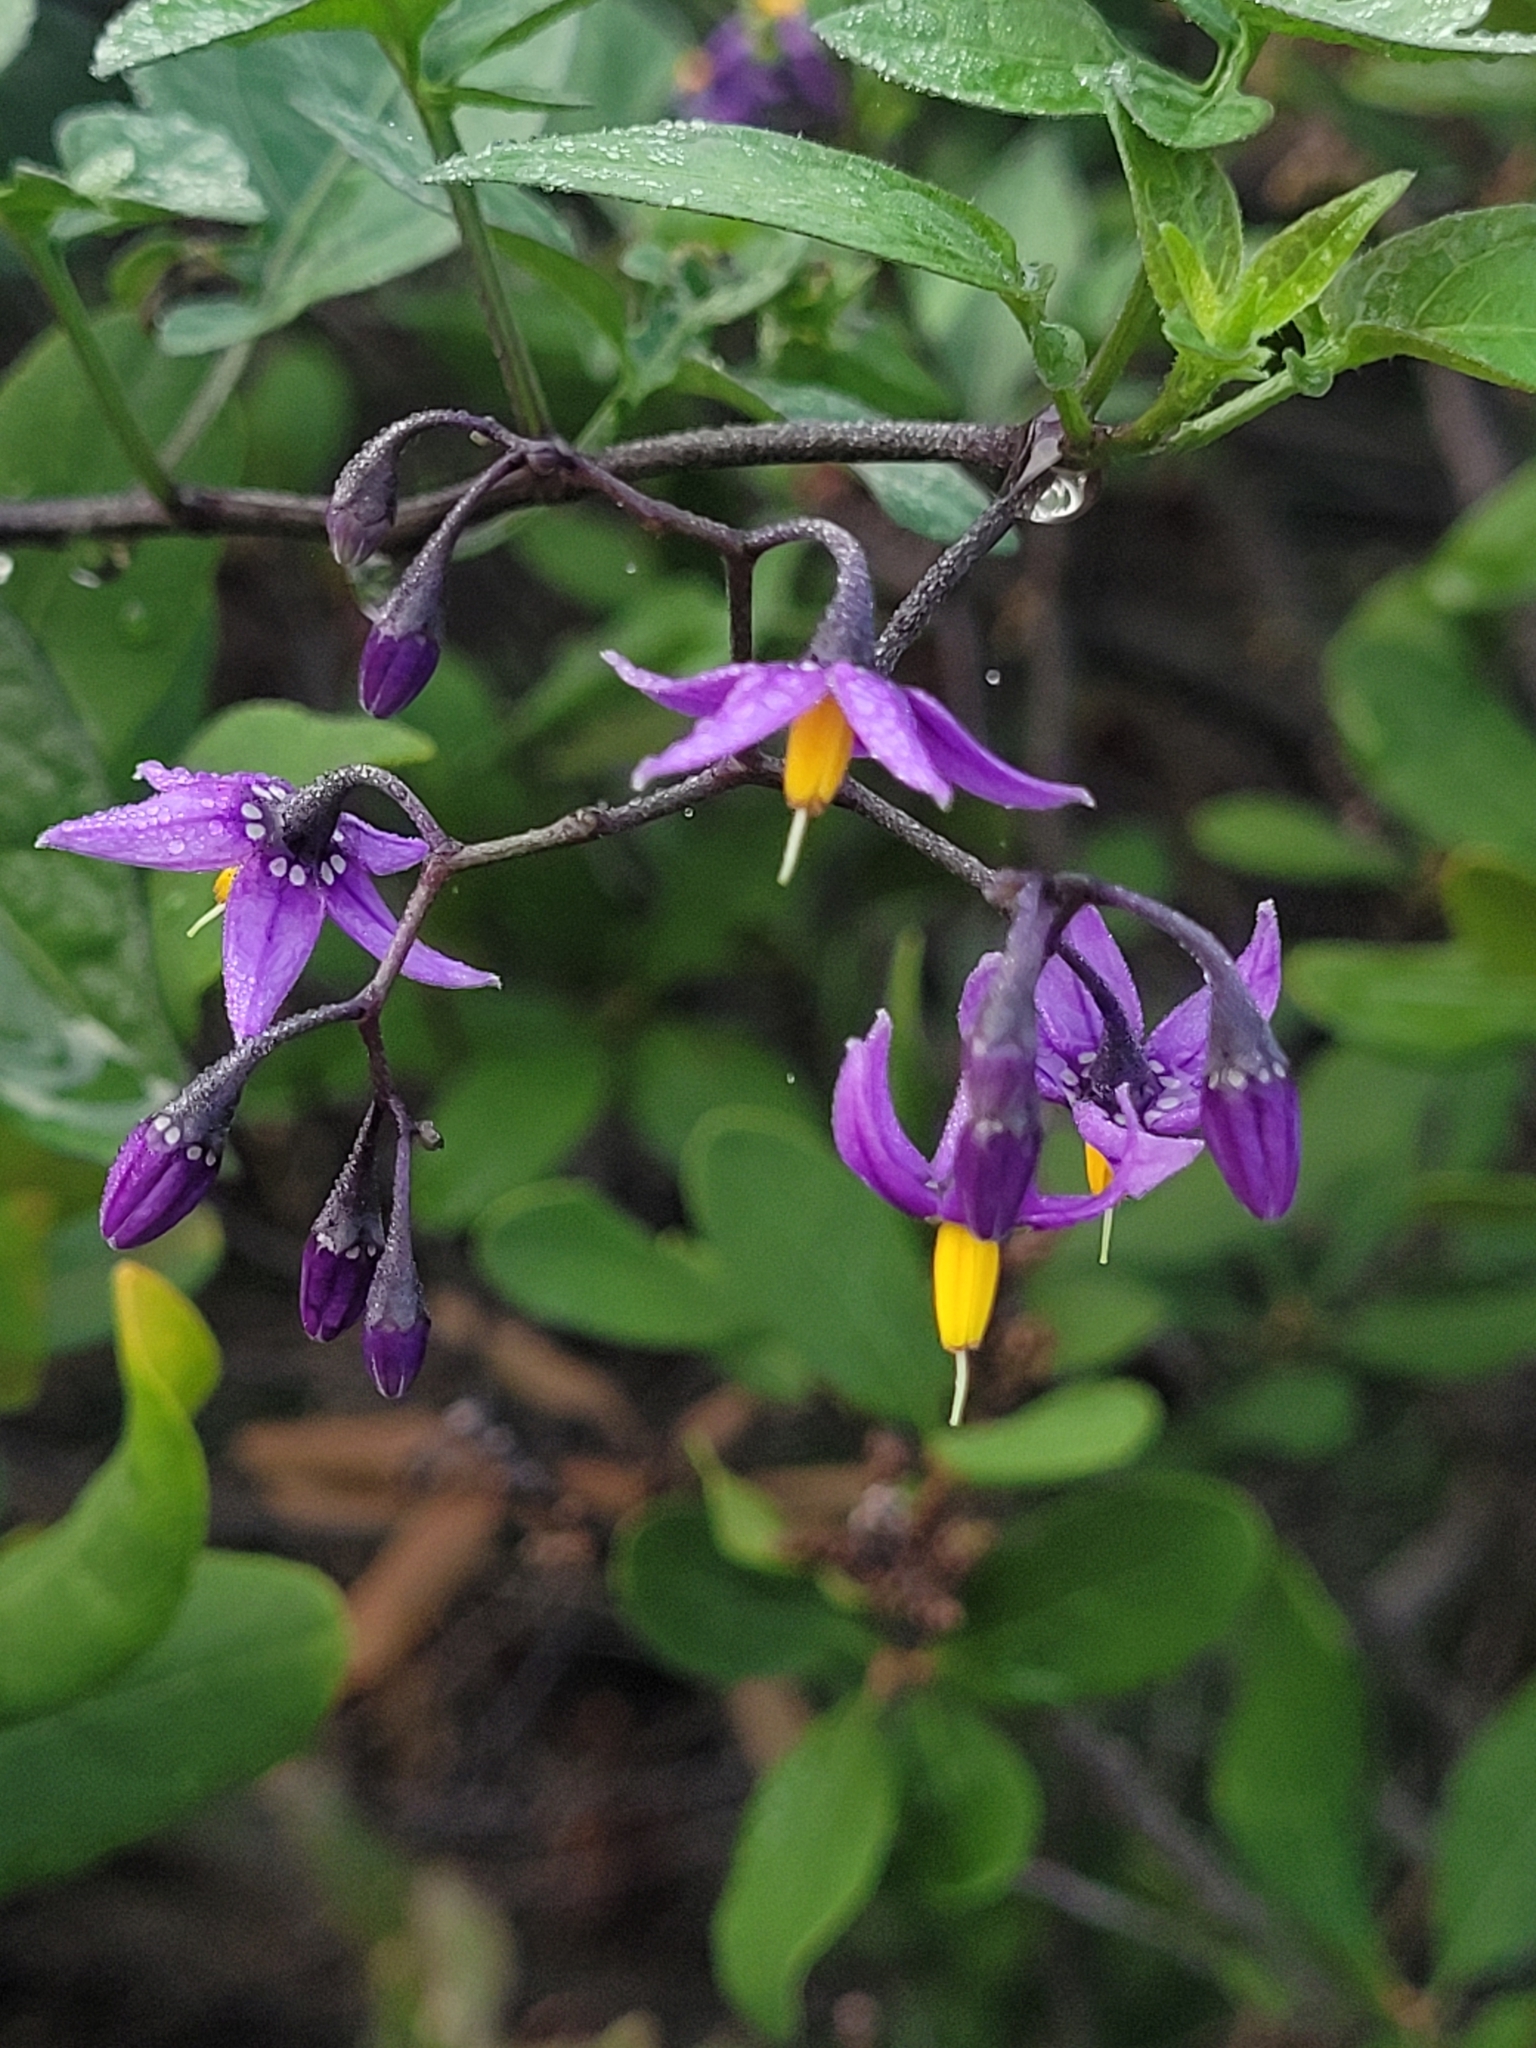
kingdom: Plantae
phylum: Tracheophyta
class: Magnoliopsida
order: Solanales
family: Solanaceae
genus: Solanum
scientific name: Solanum dulcamara
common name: Climbing nightshade
